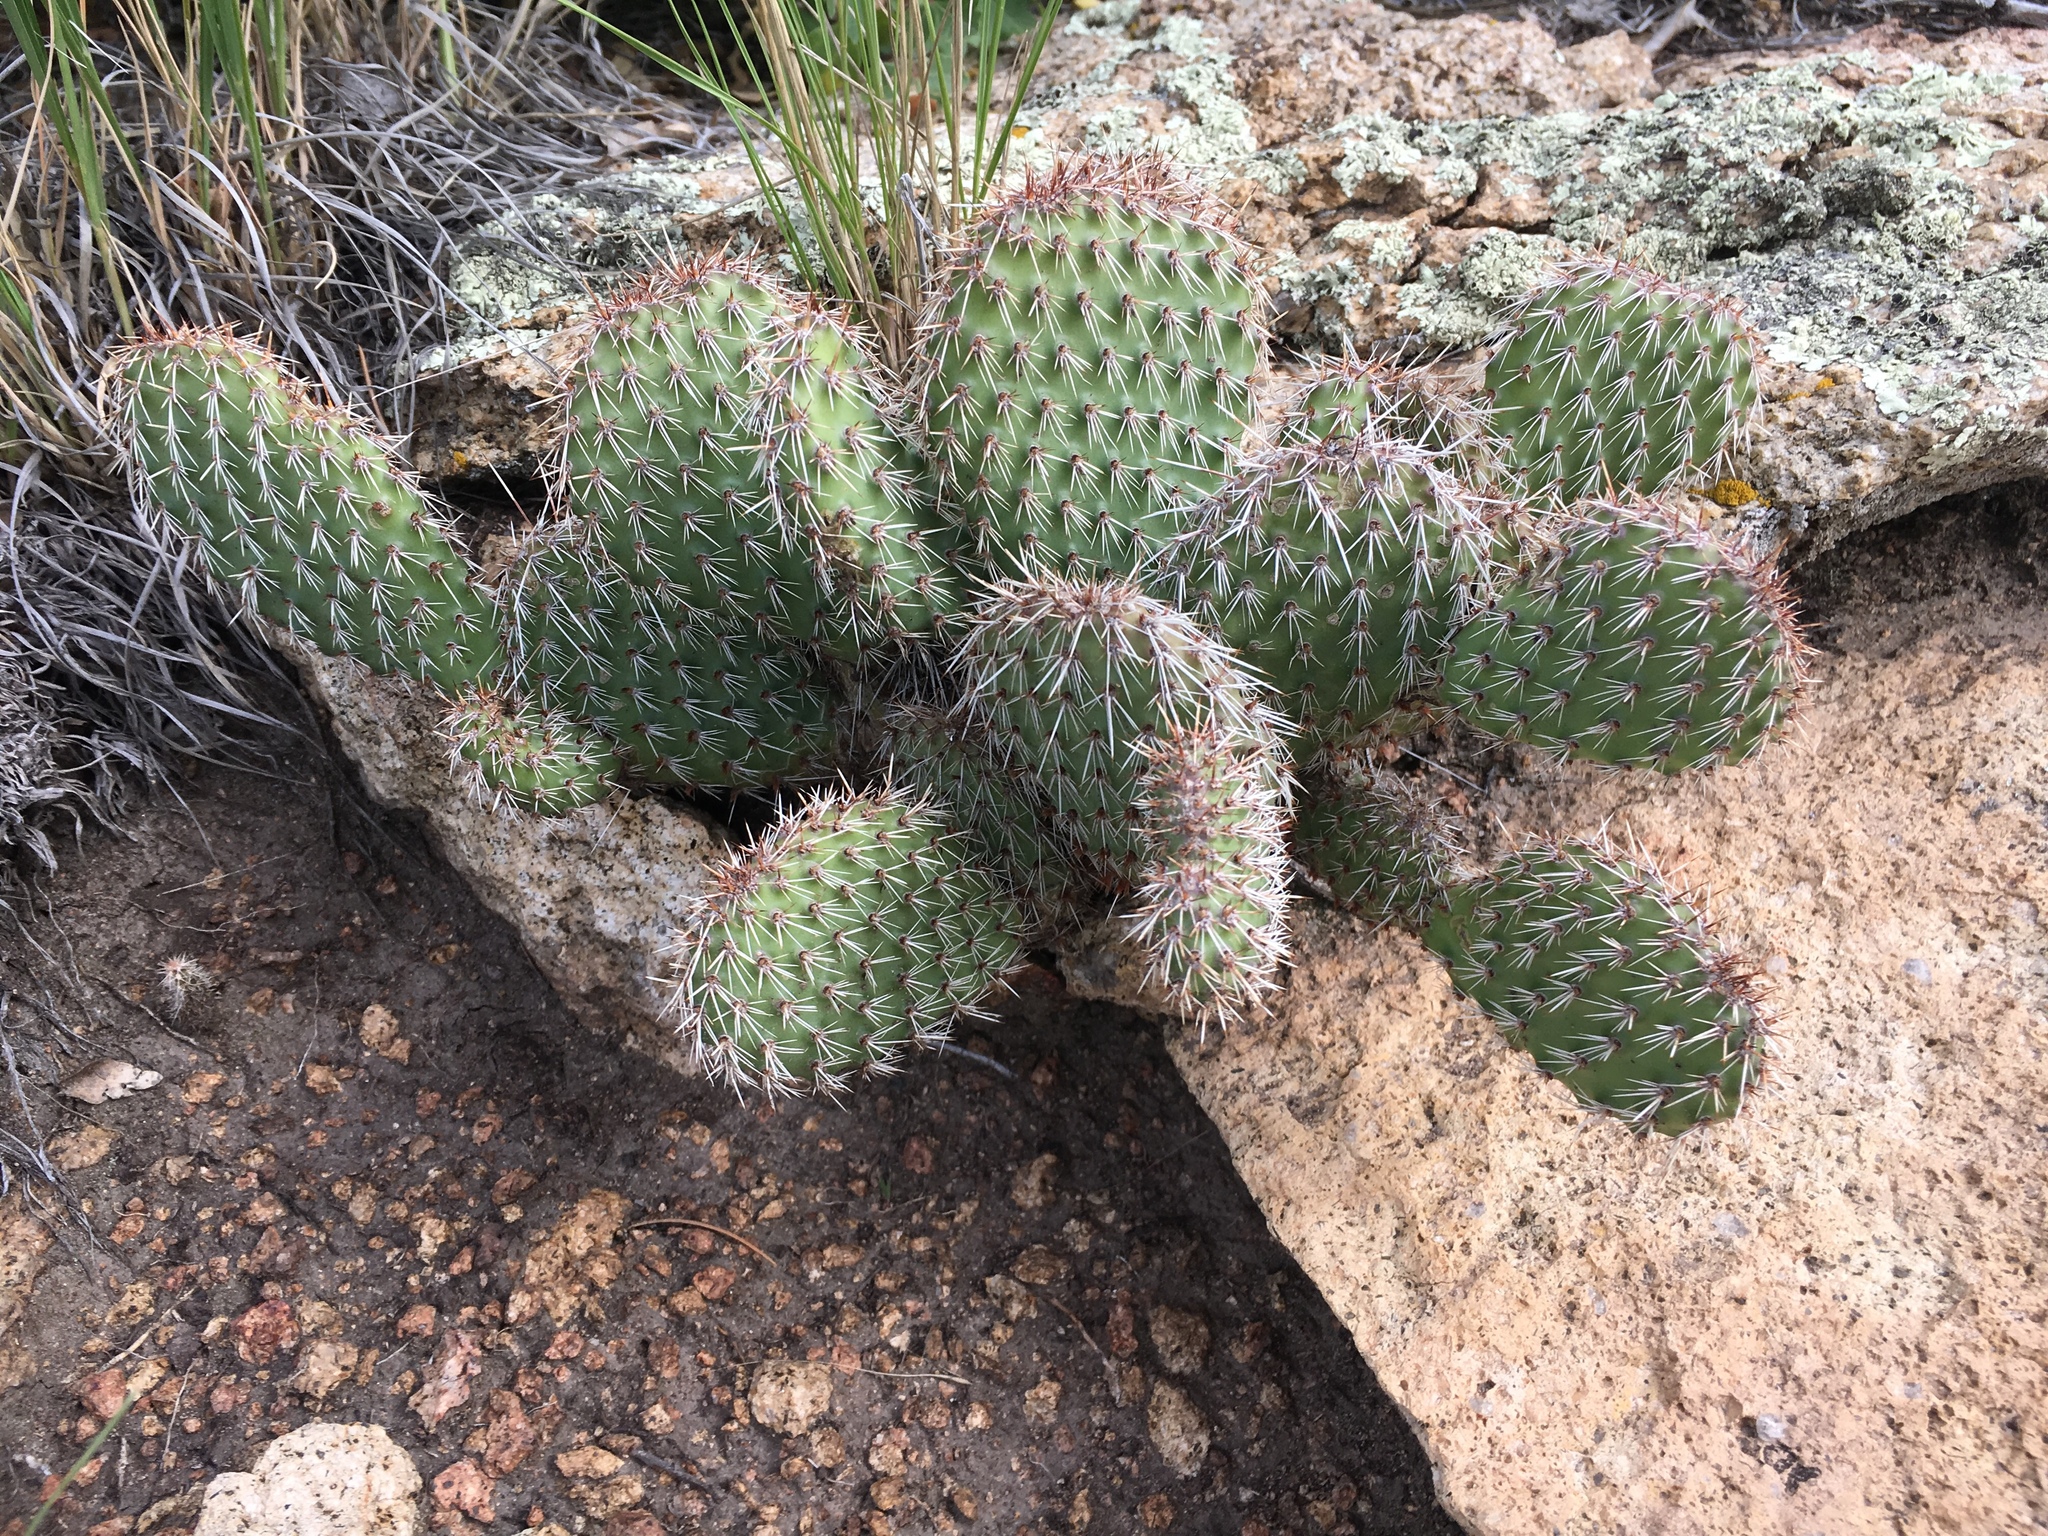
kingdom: Plantae
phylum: Tracheophyta
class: Magnoliopsida
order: Caryophyllales
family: Cactaceae
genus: Opuntia
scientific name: Opuntia polyacantha
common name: Plains prickly-pear
